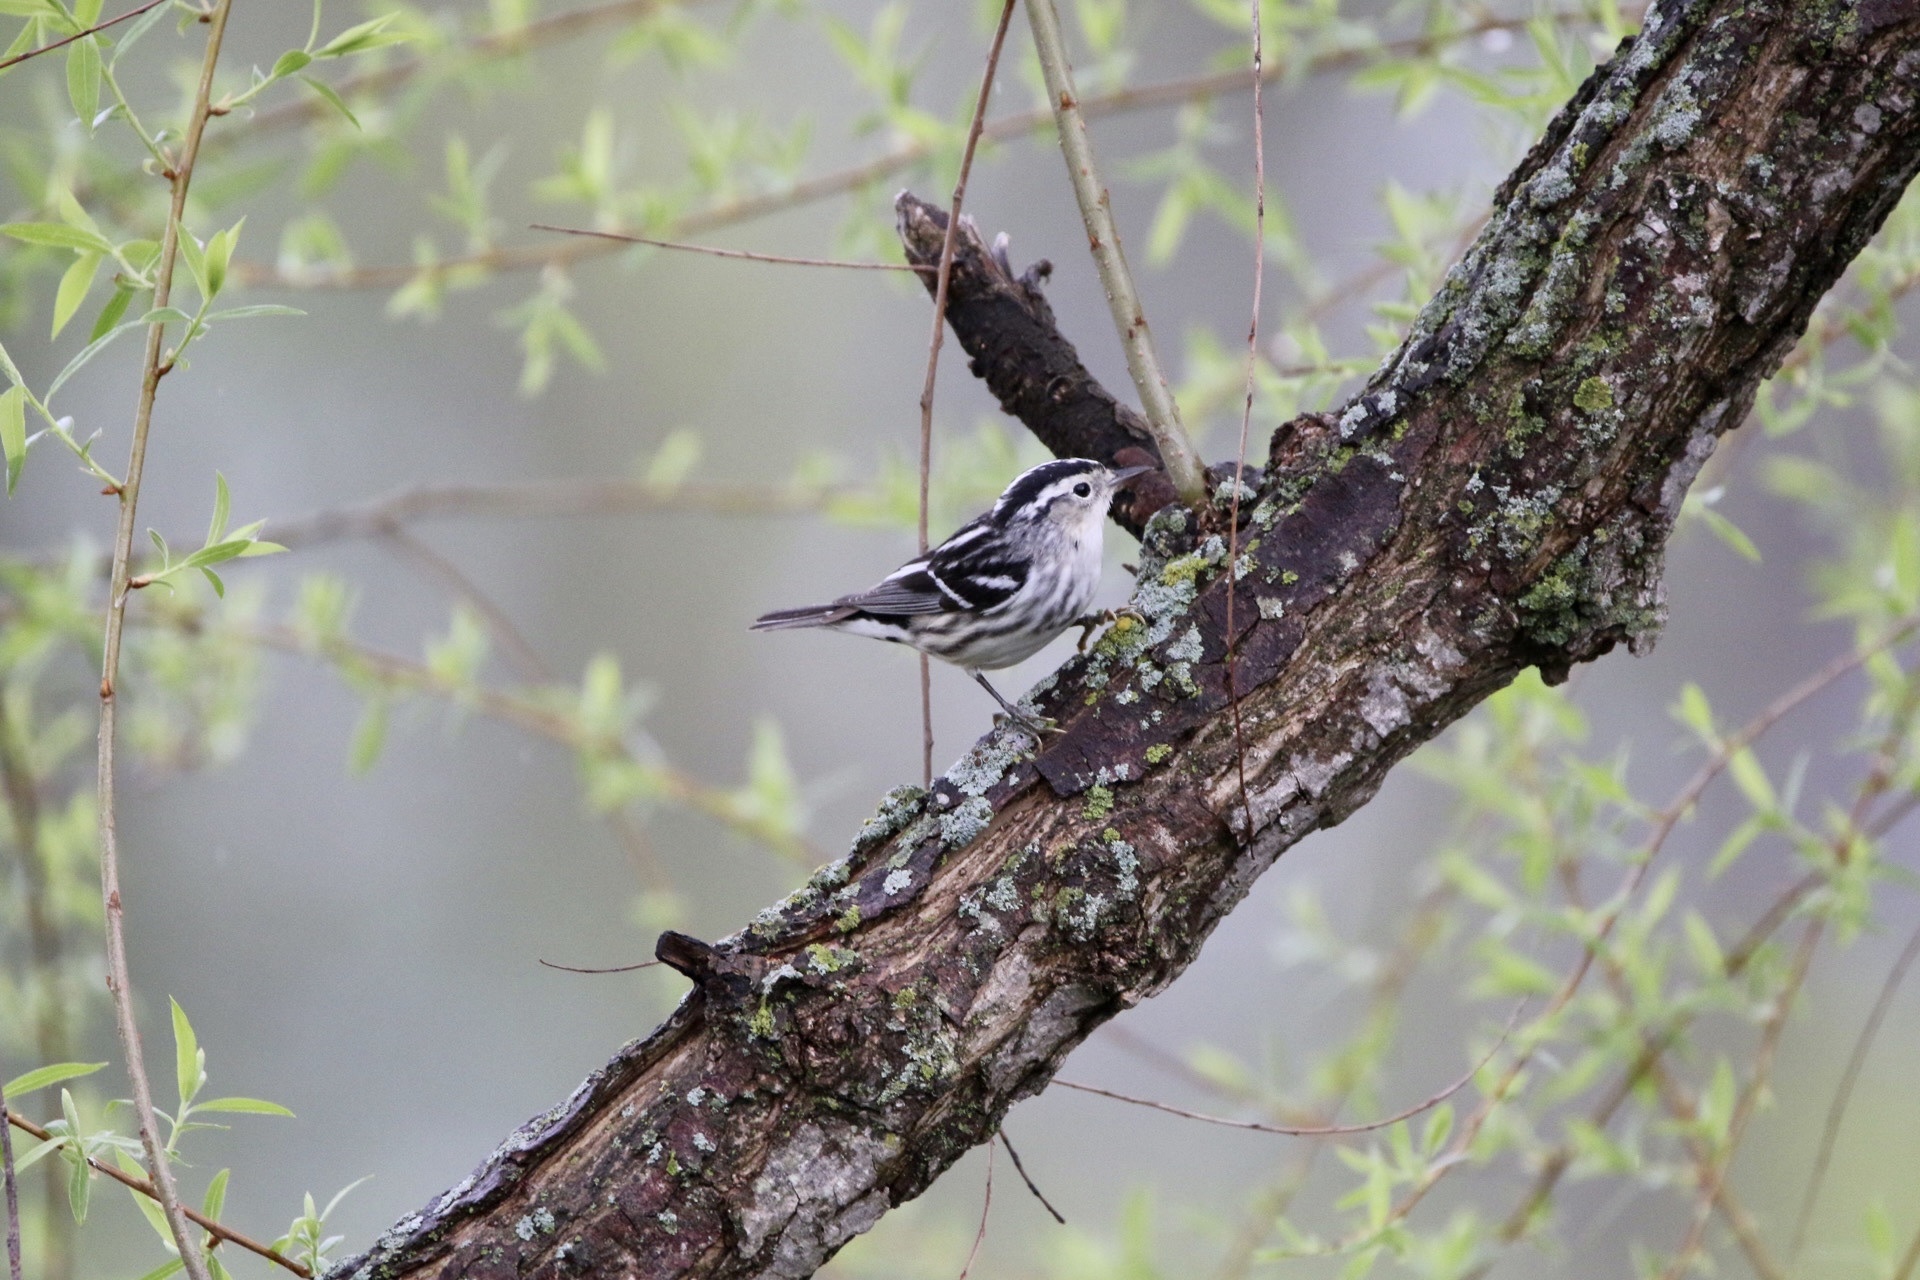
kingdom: Animalia
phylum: Chordata
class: Aves
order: Passeriformes
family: Parulidae
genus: Mniotilta
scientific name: Mniotilta varia
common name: Black-and-white warbler
